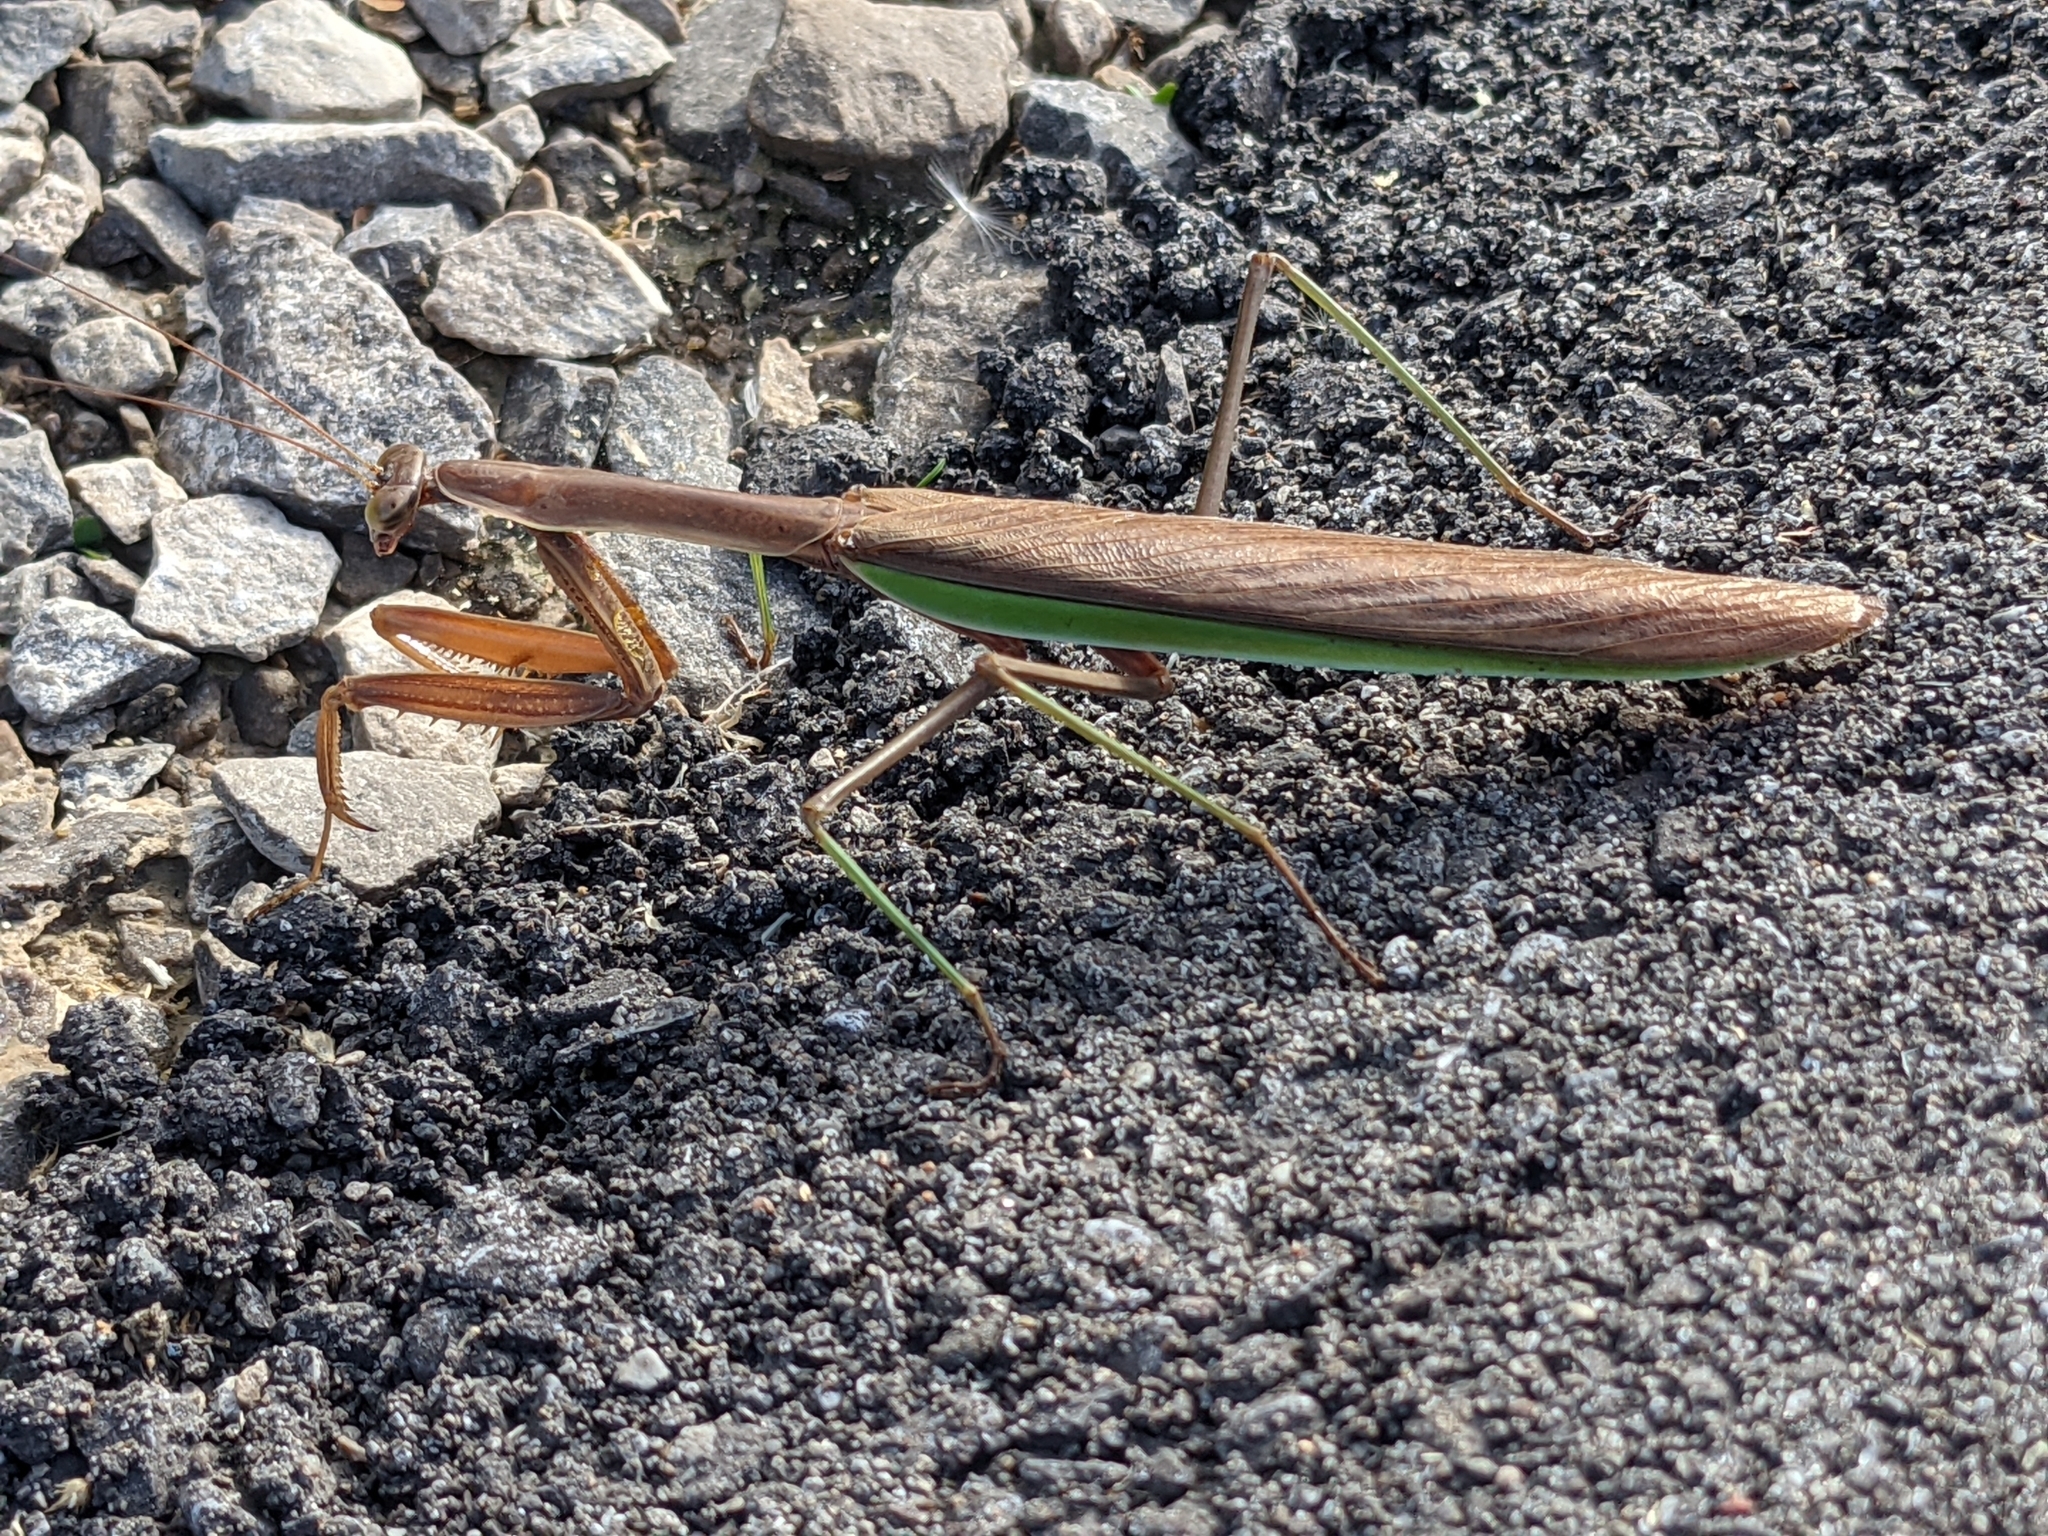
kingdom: Animalia
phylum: Arthropoda
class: Insecta
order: Mantodea
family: Mantidae
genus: Tenodera
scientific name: Tenodera sinensis
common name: Chinese mantis
